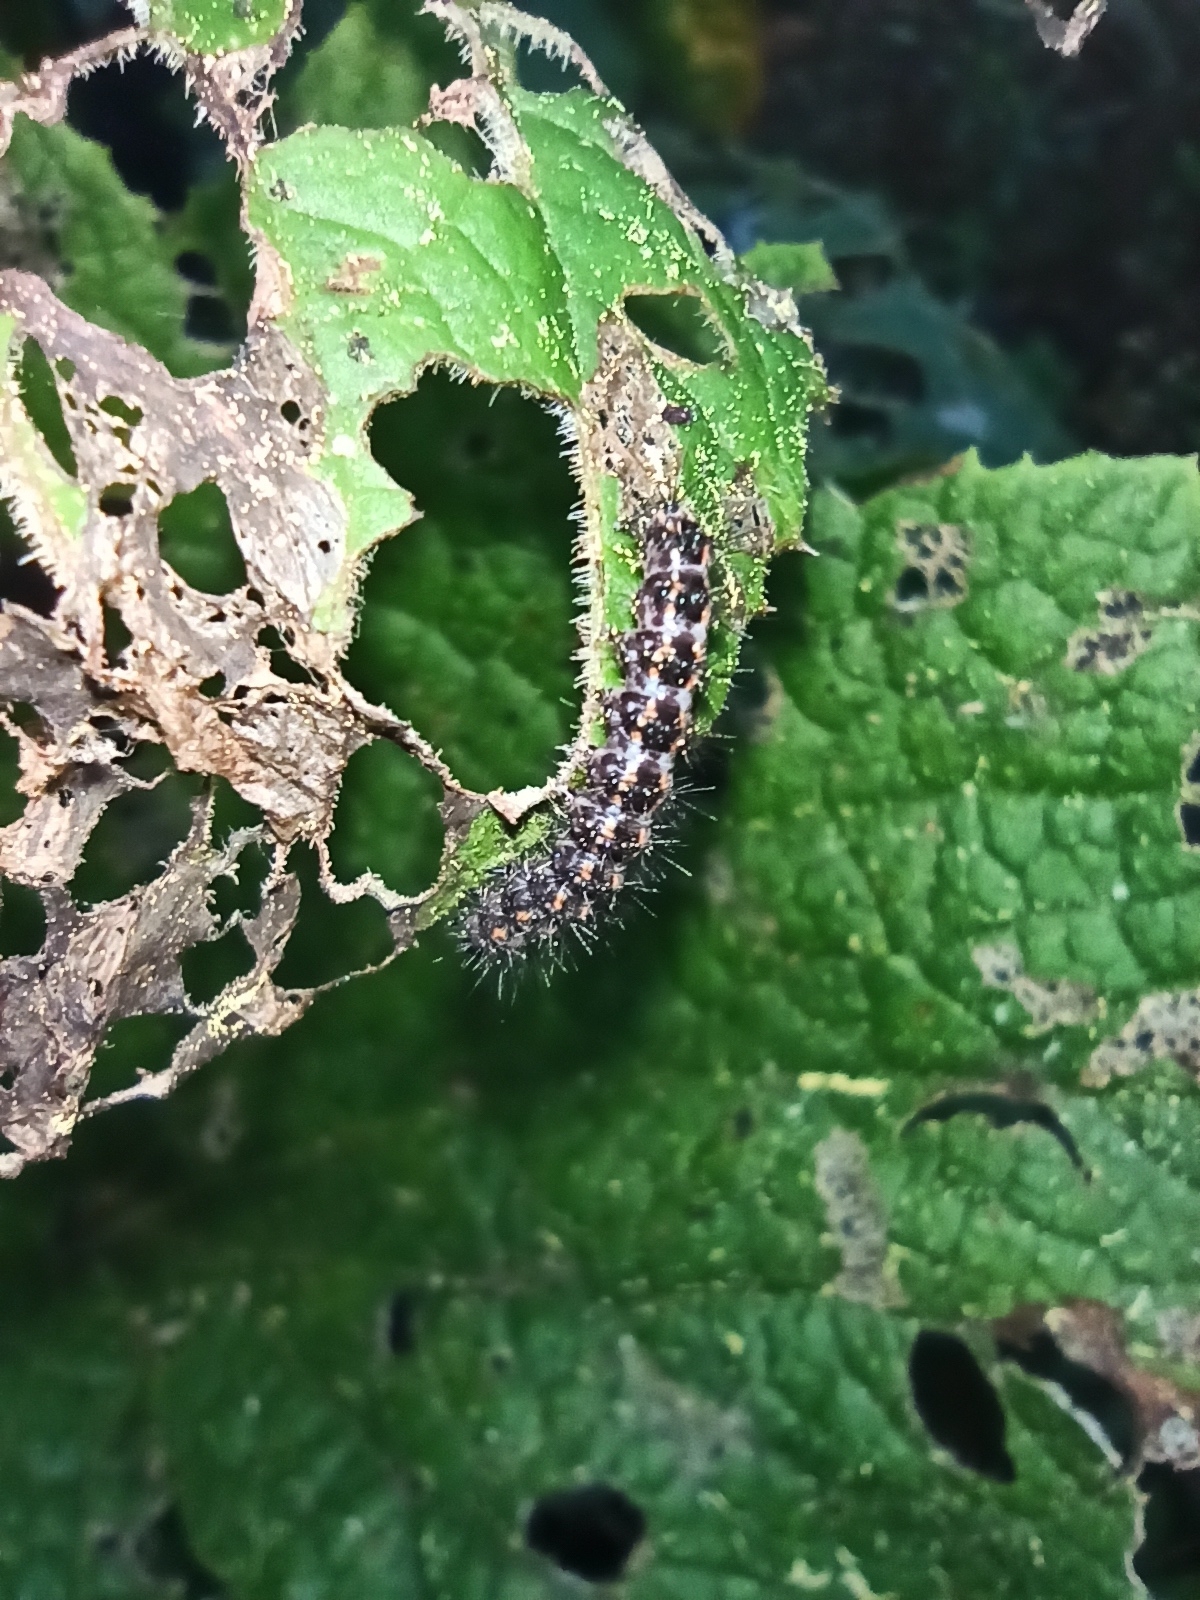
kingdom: Animalia
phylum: Arthropoda
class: Insecta
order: Lepidoptera
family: Erebidae
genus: Nyctemera
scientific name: Nyctemera annulatum
